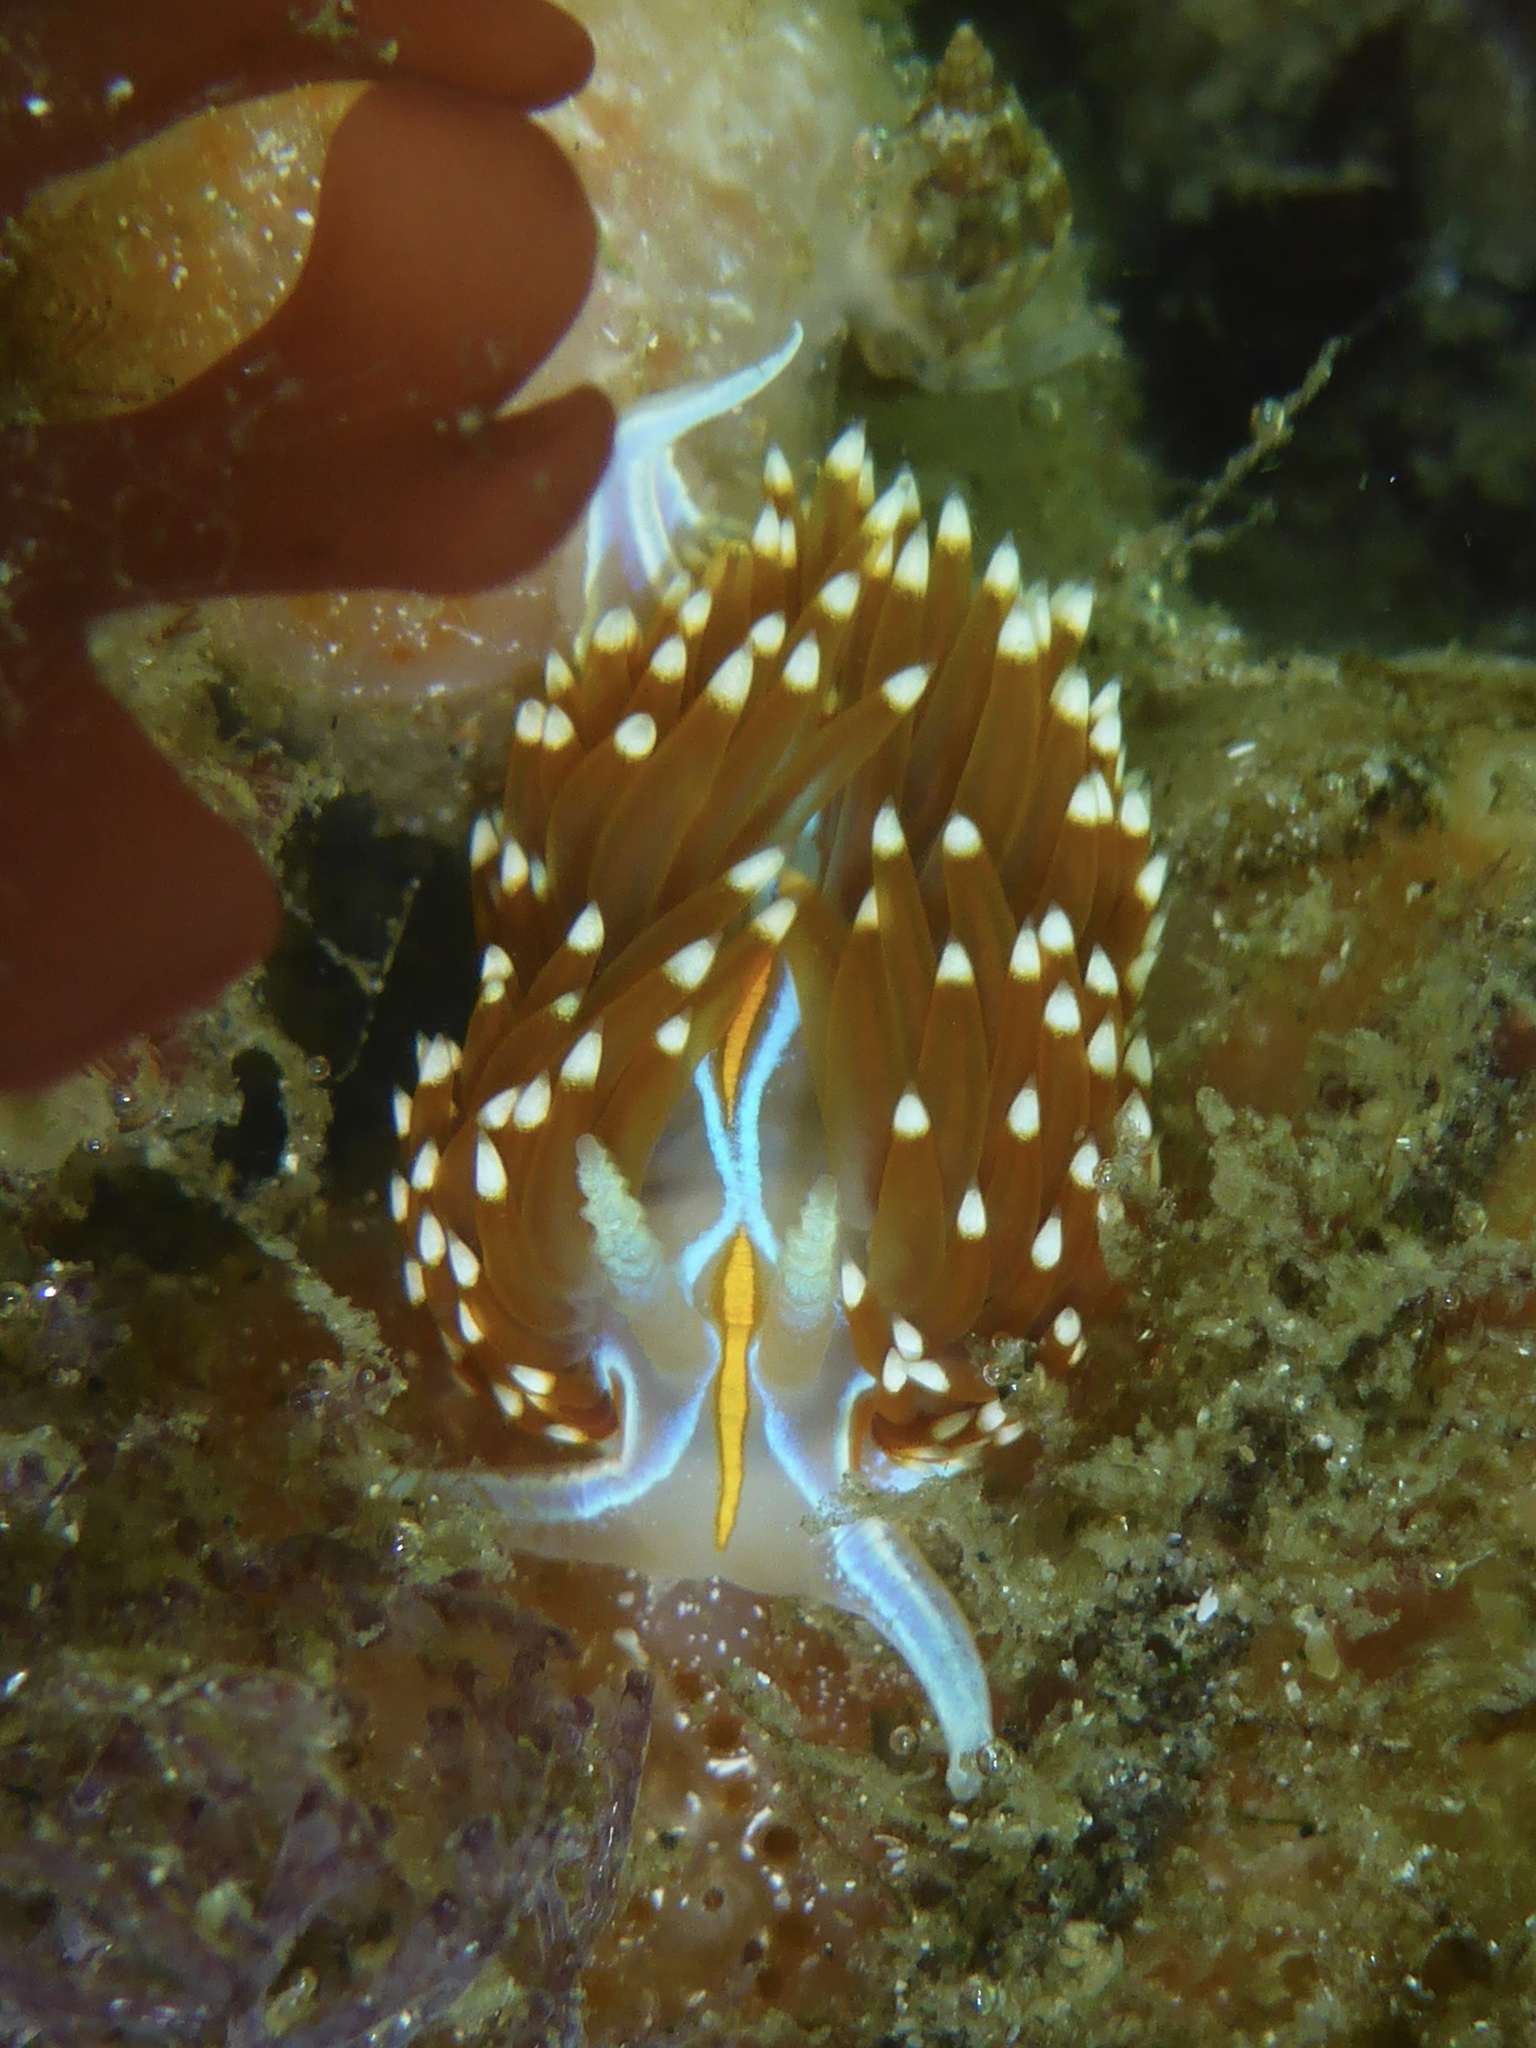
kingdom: Animalia
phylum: Mollusca
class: Gastropoda
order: Nudibranchia
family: Myrrhinidae
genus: Hermissenda
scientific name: Hermissenda opalescens
